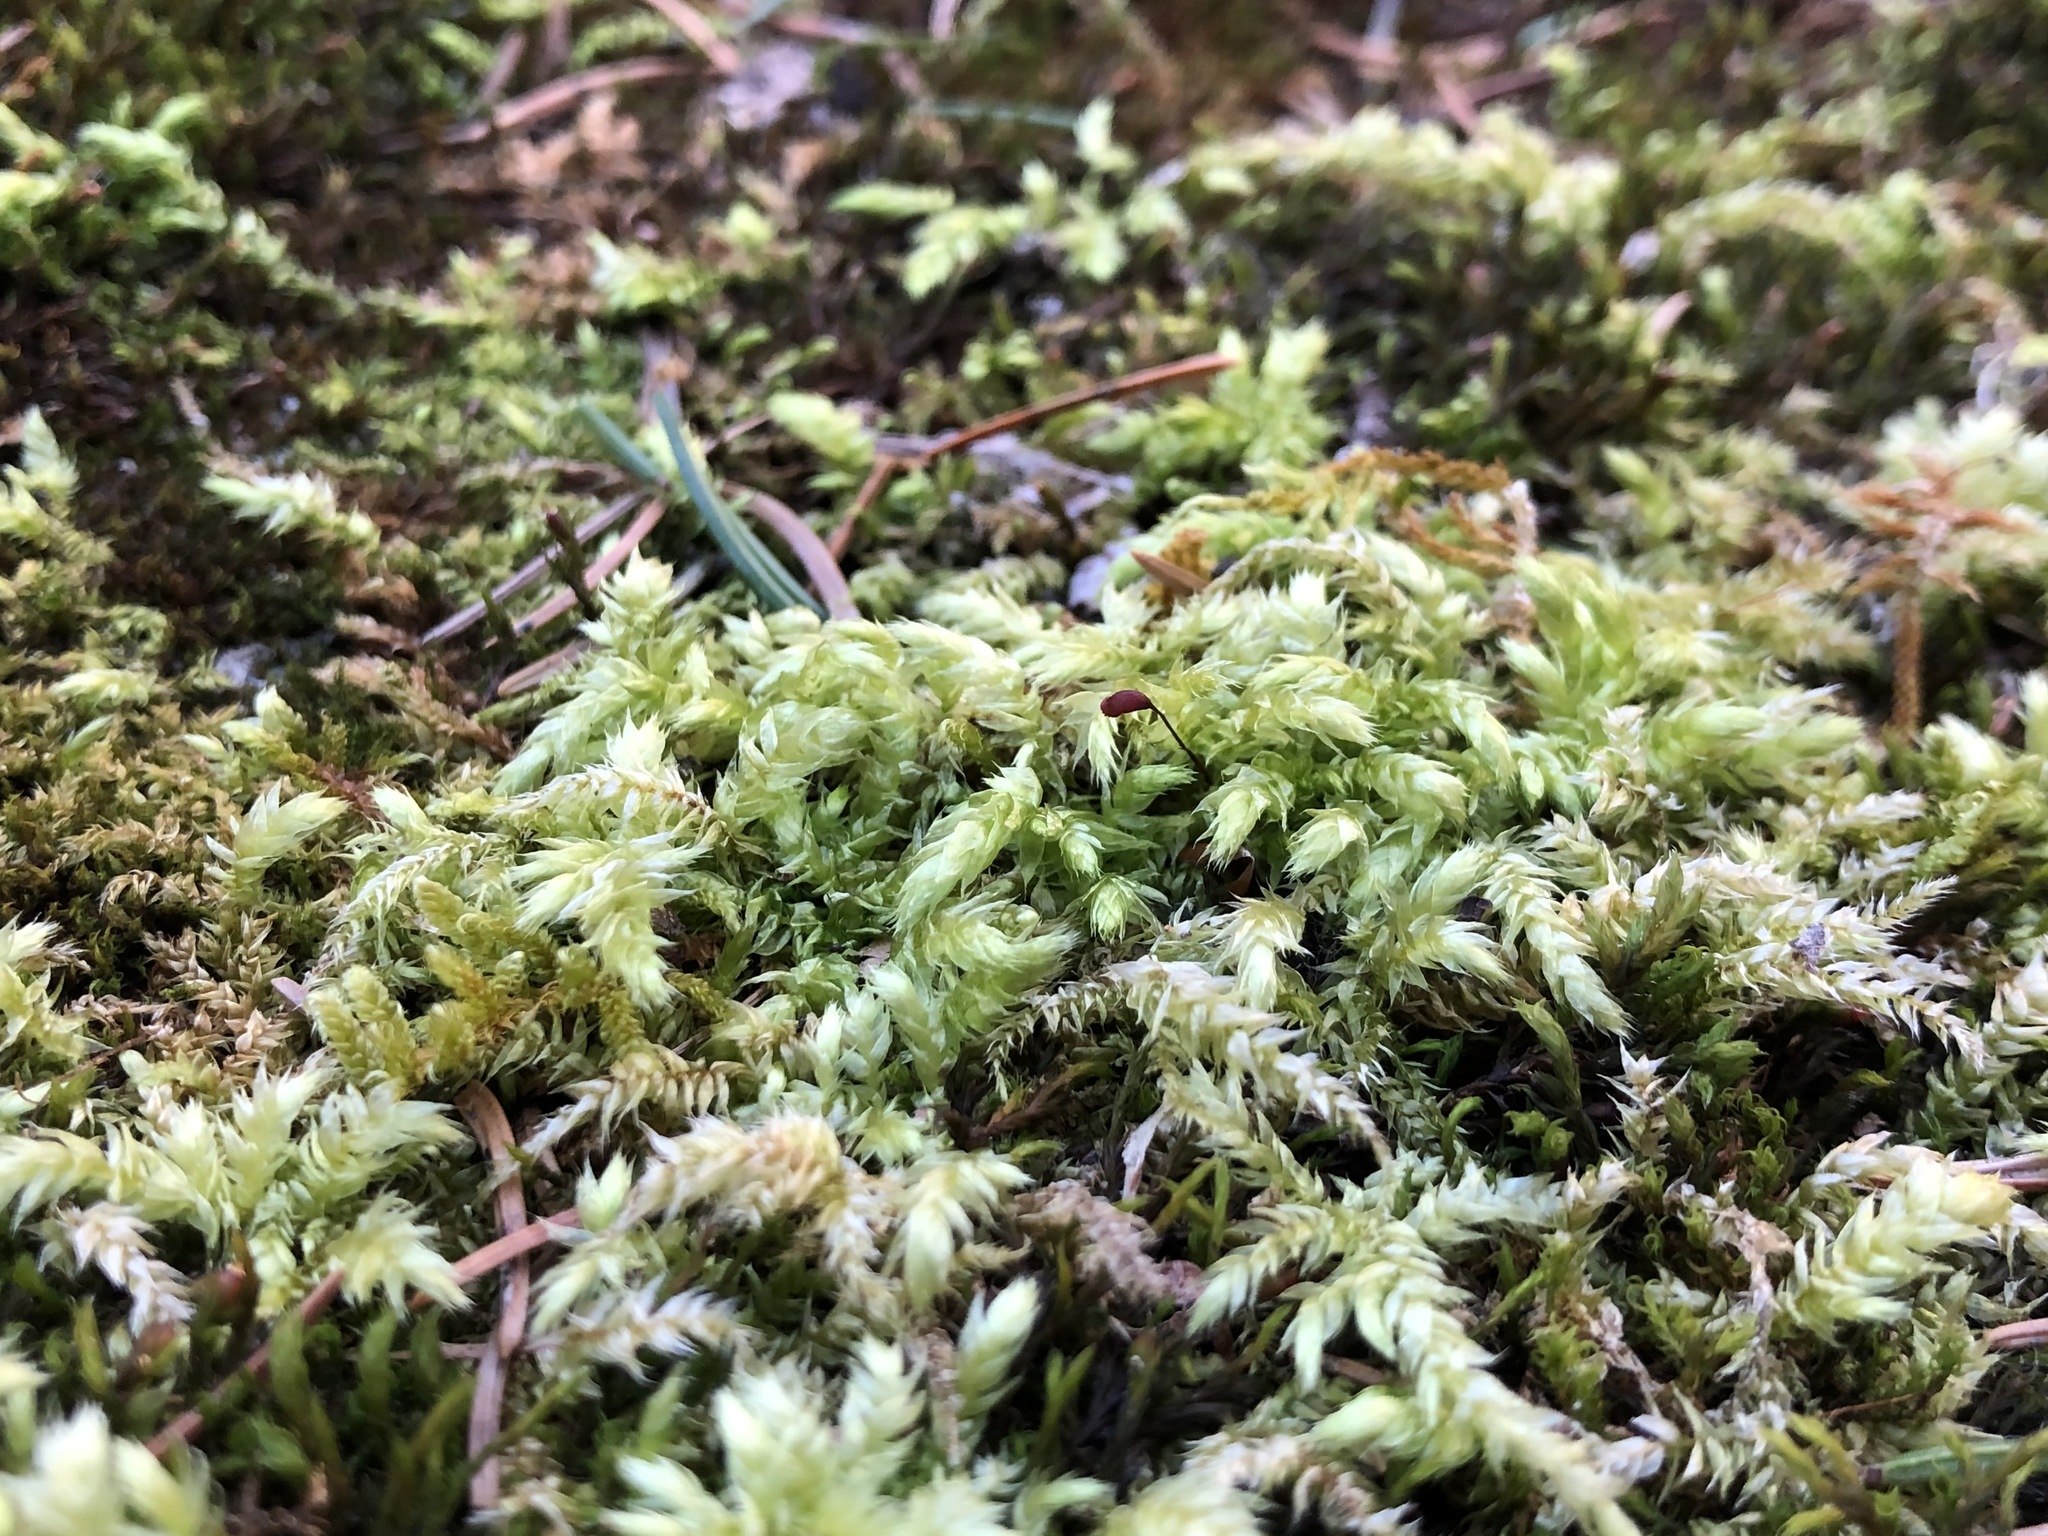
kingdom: Plantae
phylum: Bryophyta
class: Bryopsida
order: Hypnales
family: Brachytheciaceae
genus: Brachythecium
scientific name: Brachythecium salebrosum
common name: Smooth-stalk feather-moss
